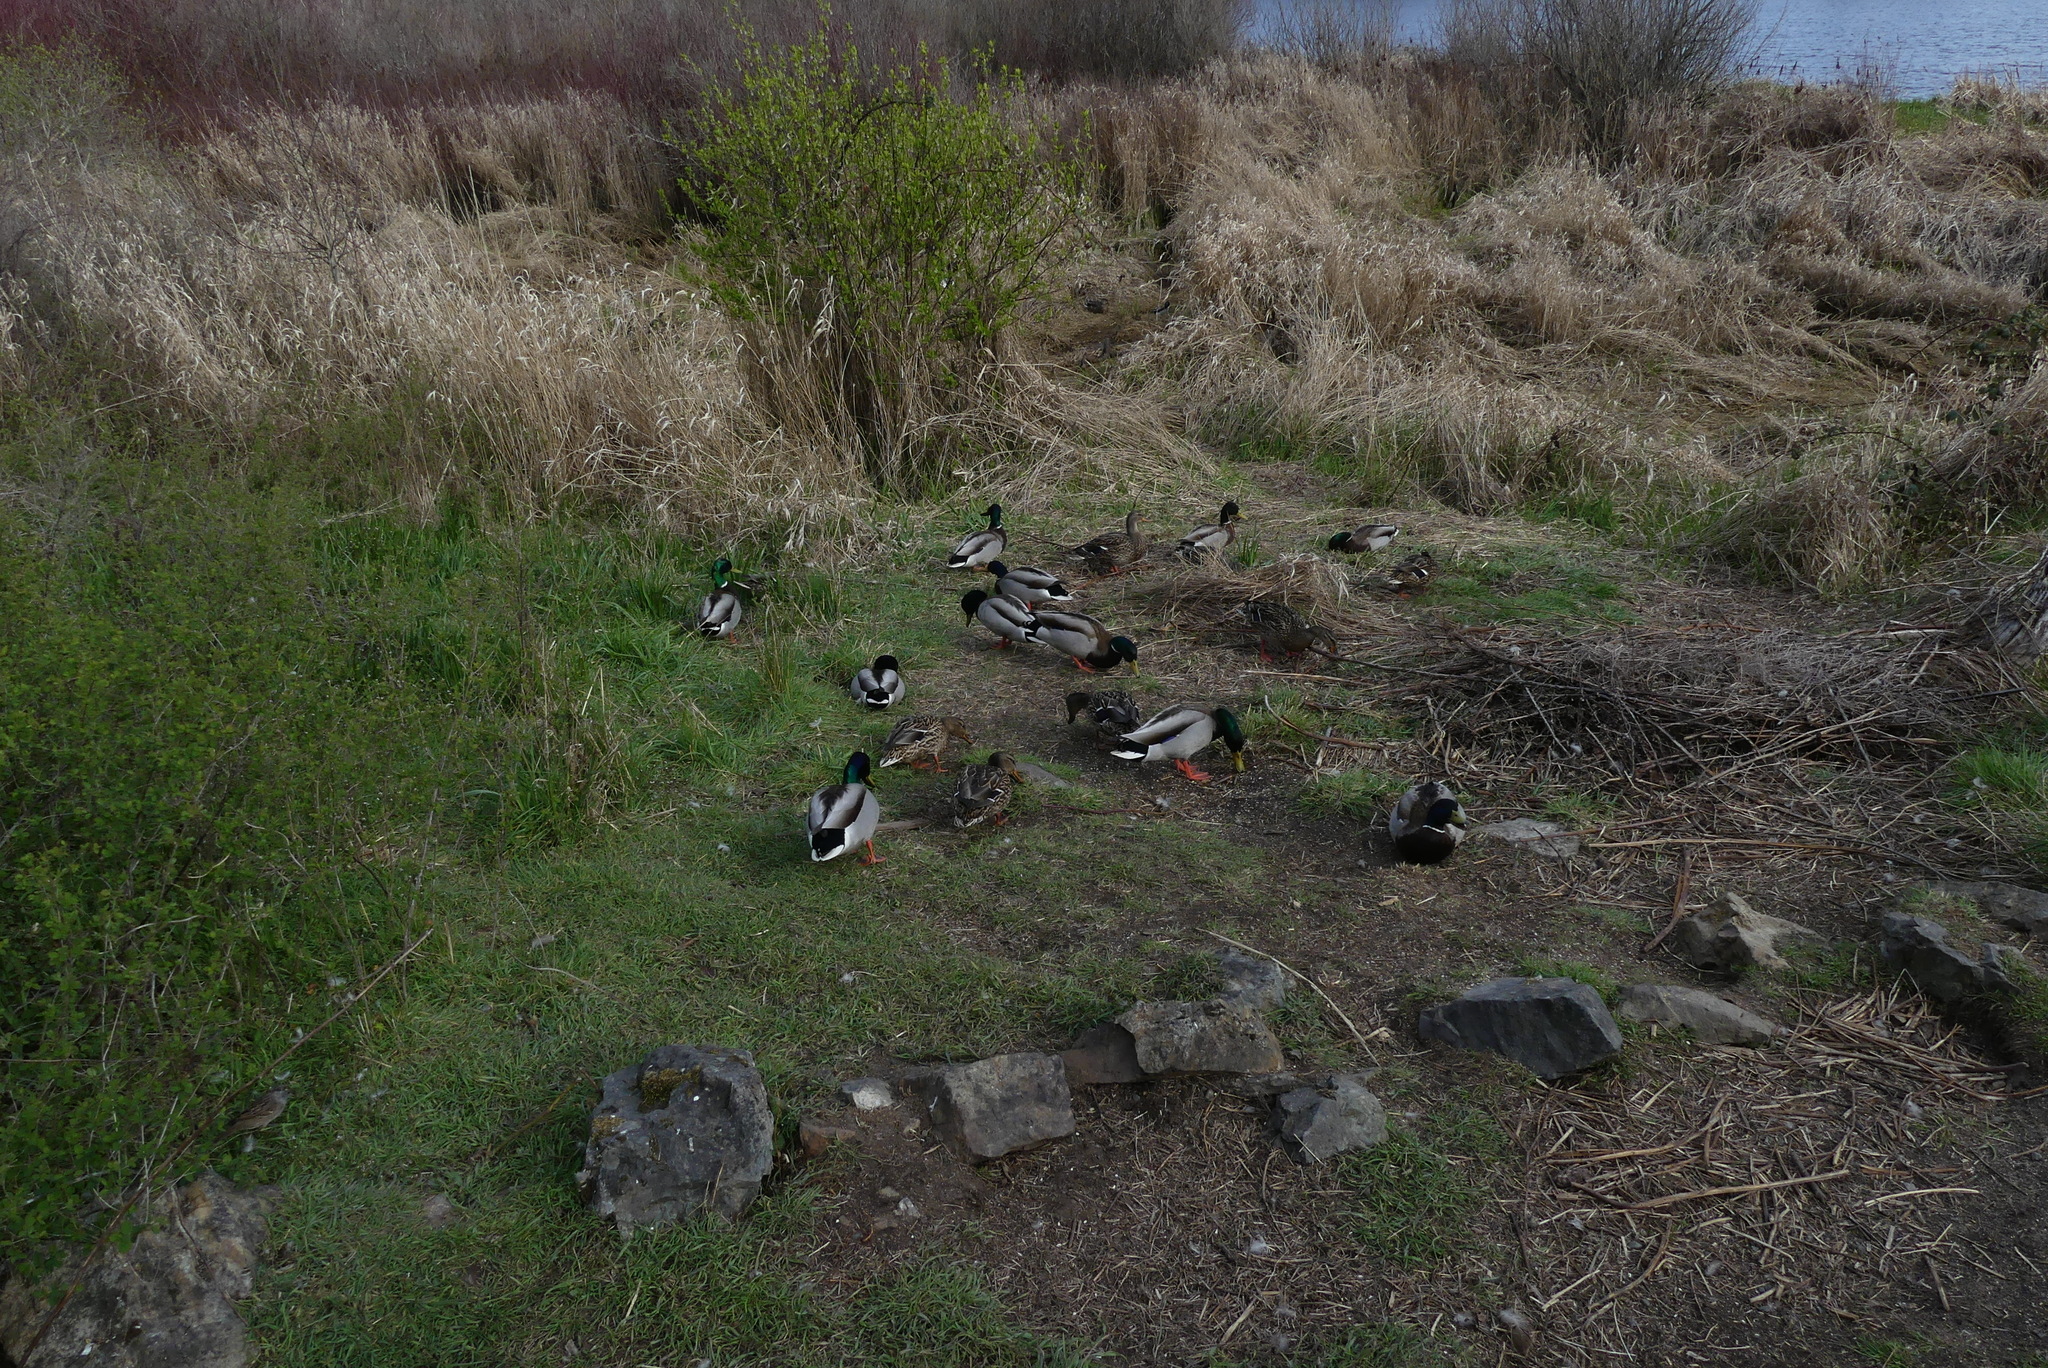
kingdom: Animalia
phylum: Chordata
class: Aves
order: Anseriformes
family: Anatidae
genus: Anas
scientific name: Anas platyrhynchos
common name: Mallard
